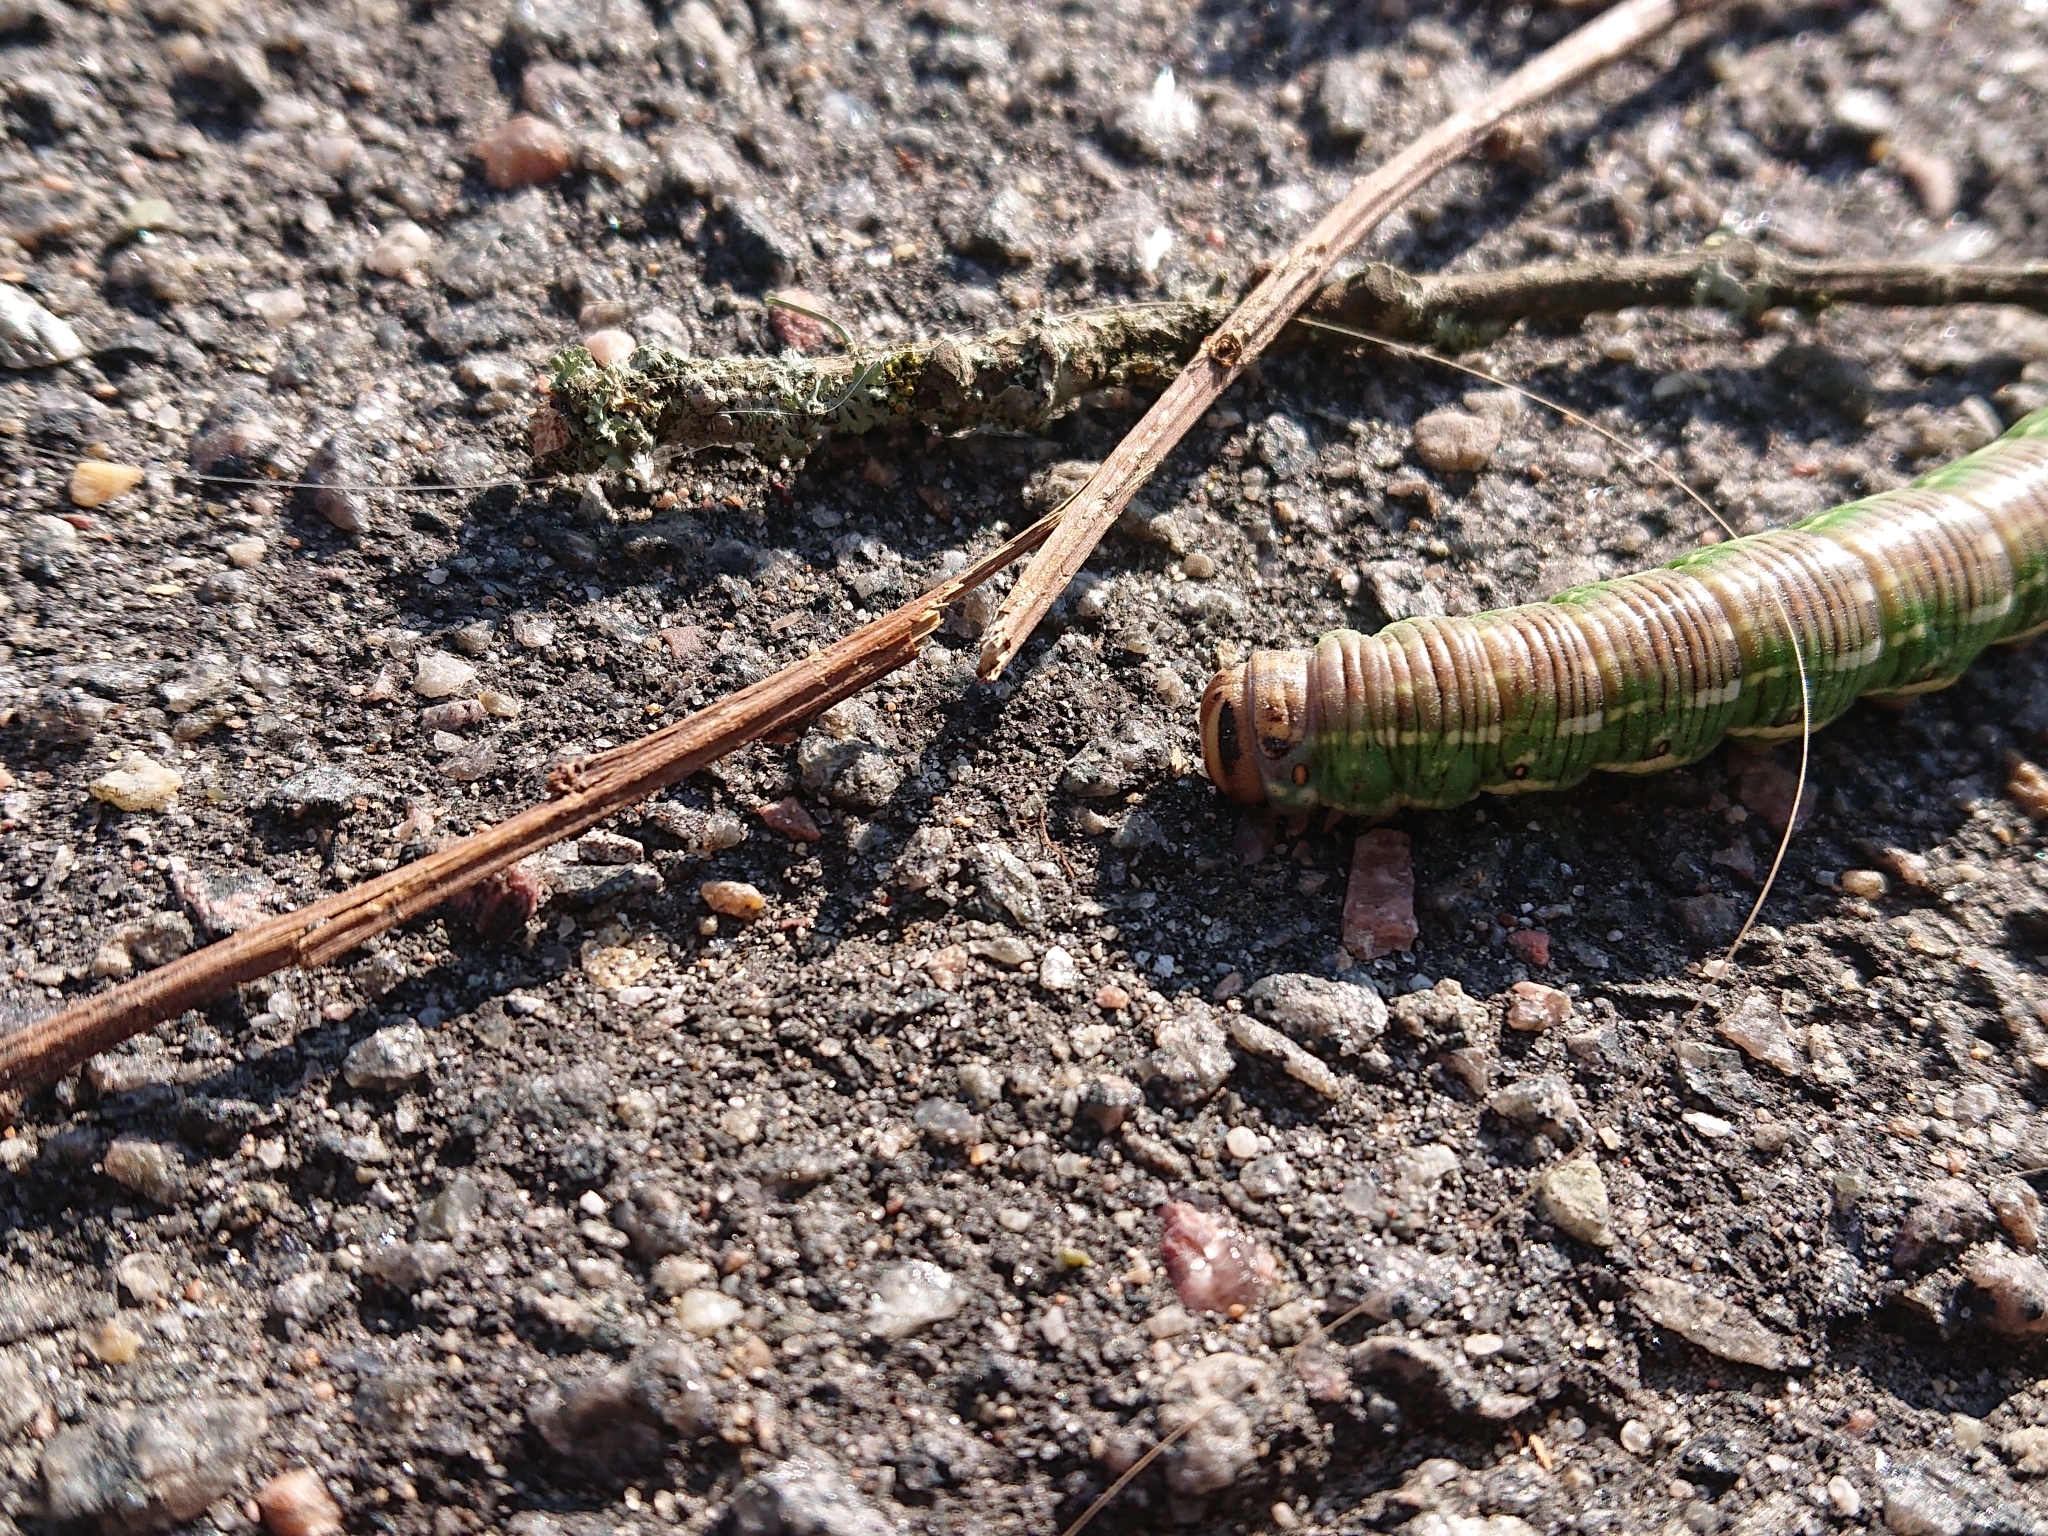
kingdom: Animalia
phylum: Arthropoda
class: Insecta
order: Lepidoptera
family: Sphingidae
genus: Sphinx
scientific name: Sphinx pinastri
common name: Pine hawk-moth
